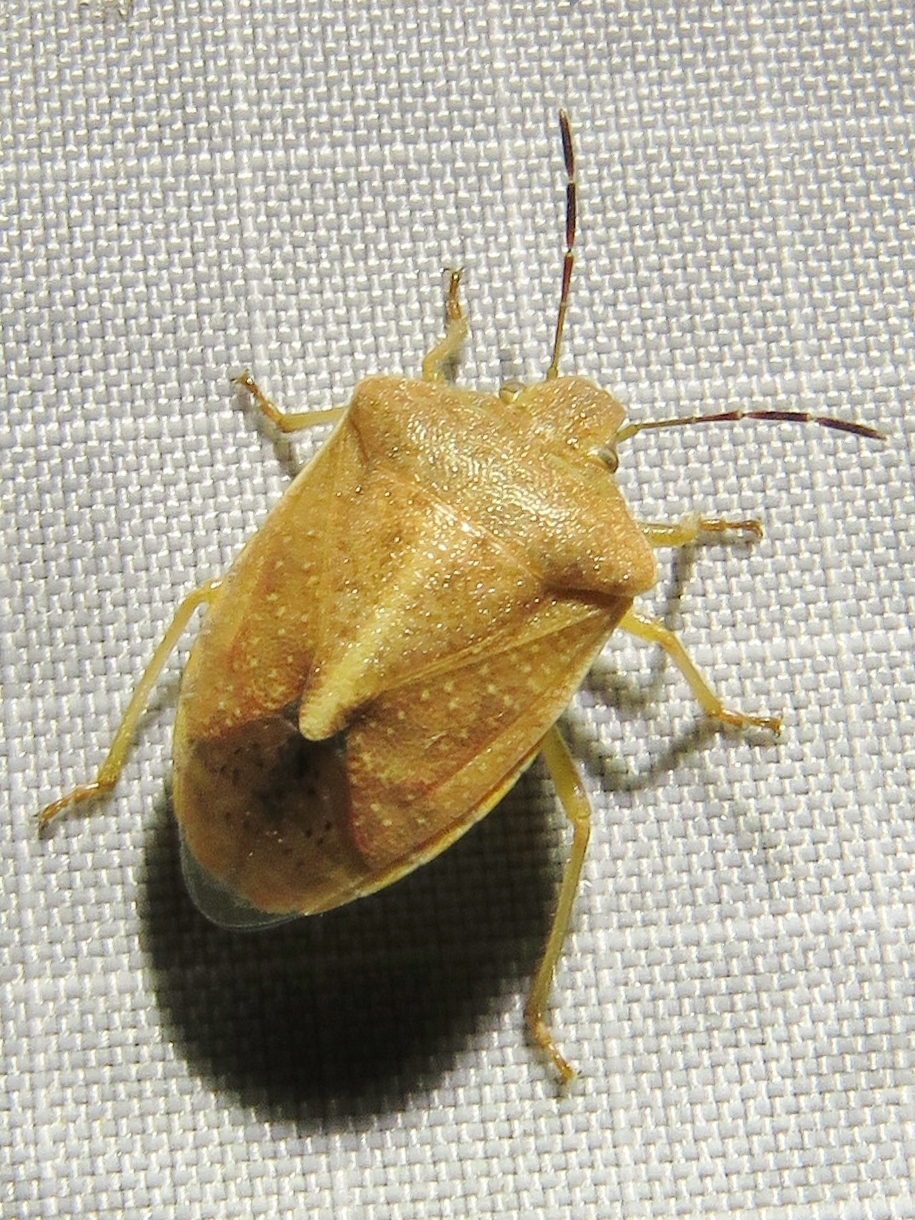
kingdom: Animalia
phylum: Arthropoda
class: Insecta
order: Hemiptera
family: Pentatomidae
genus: Thyanta
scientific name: Thyanta accerra
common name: Stink bug
